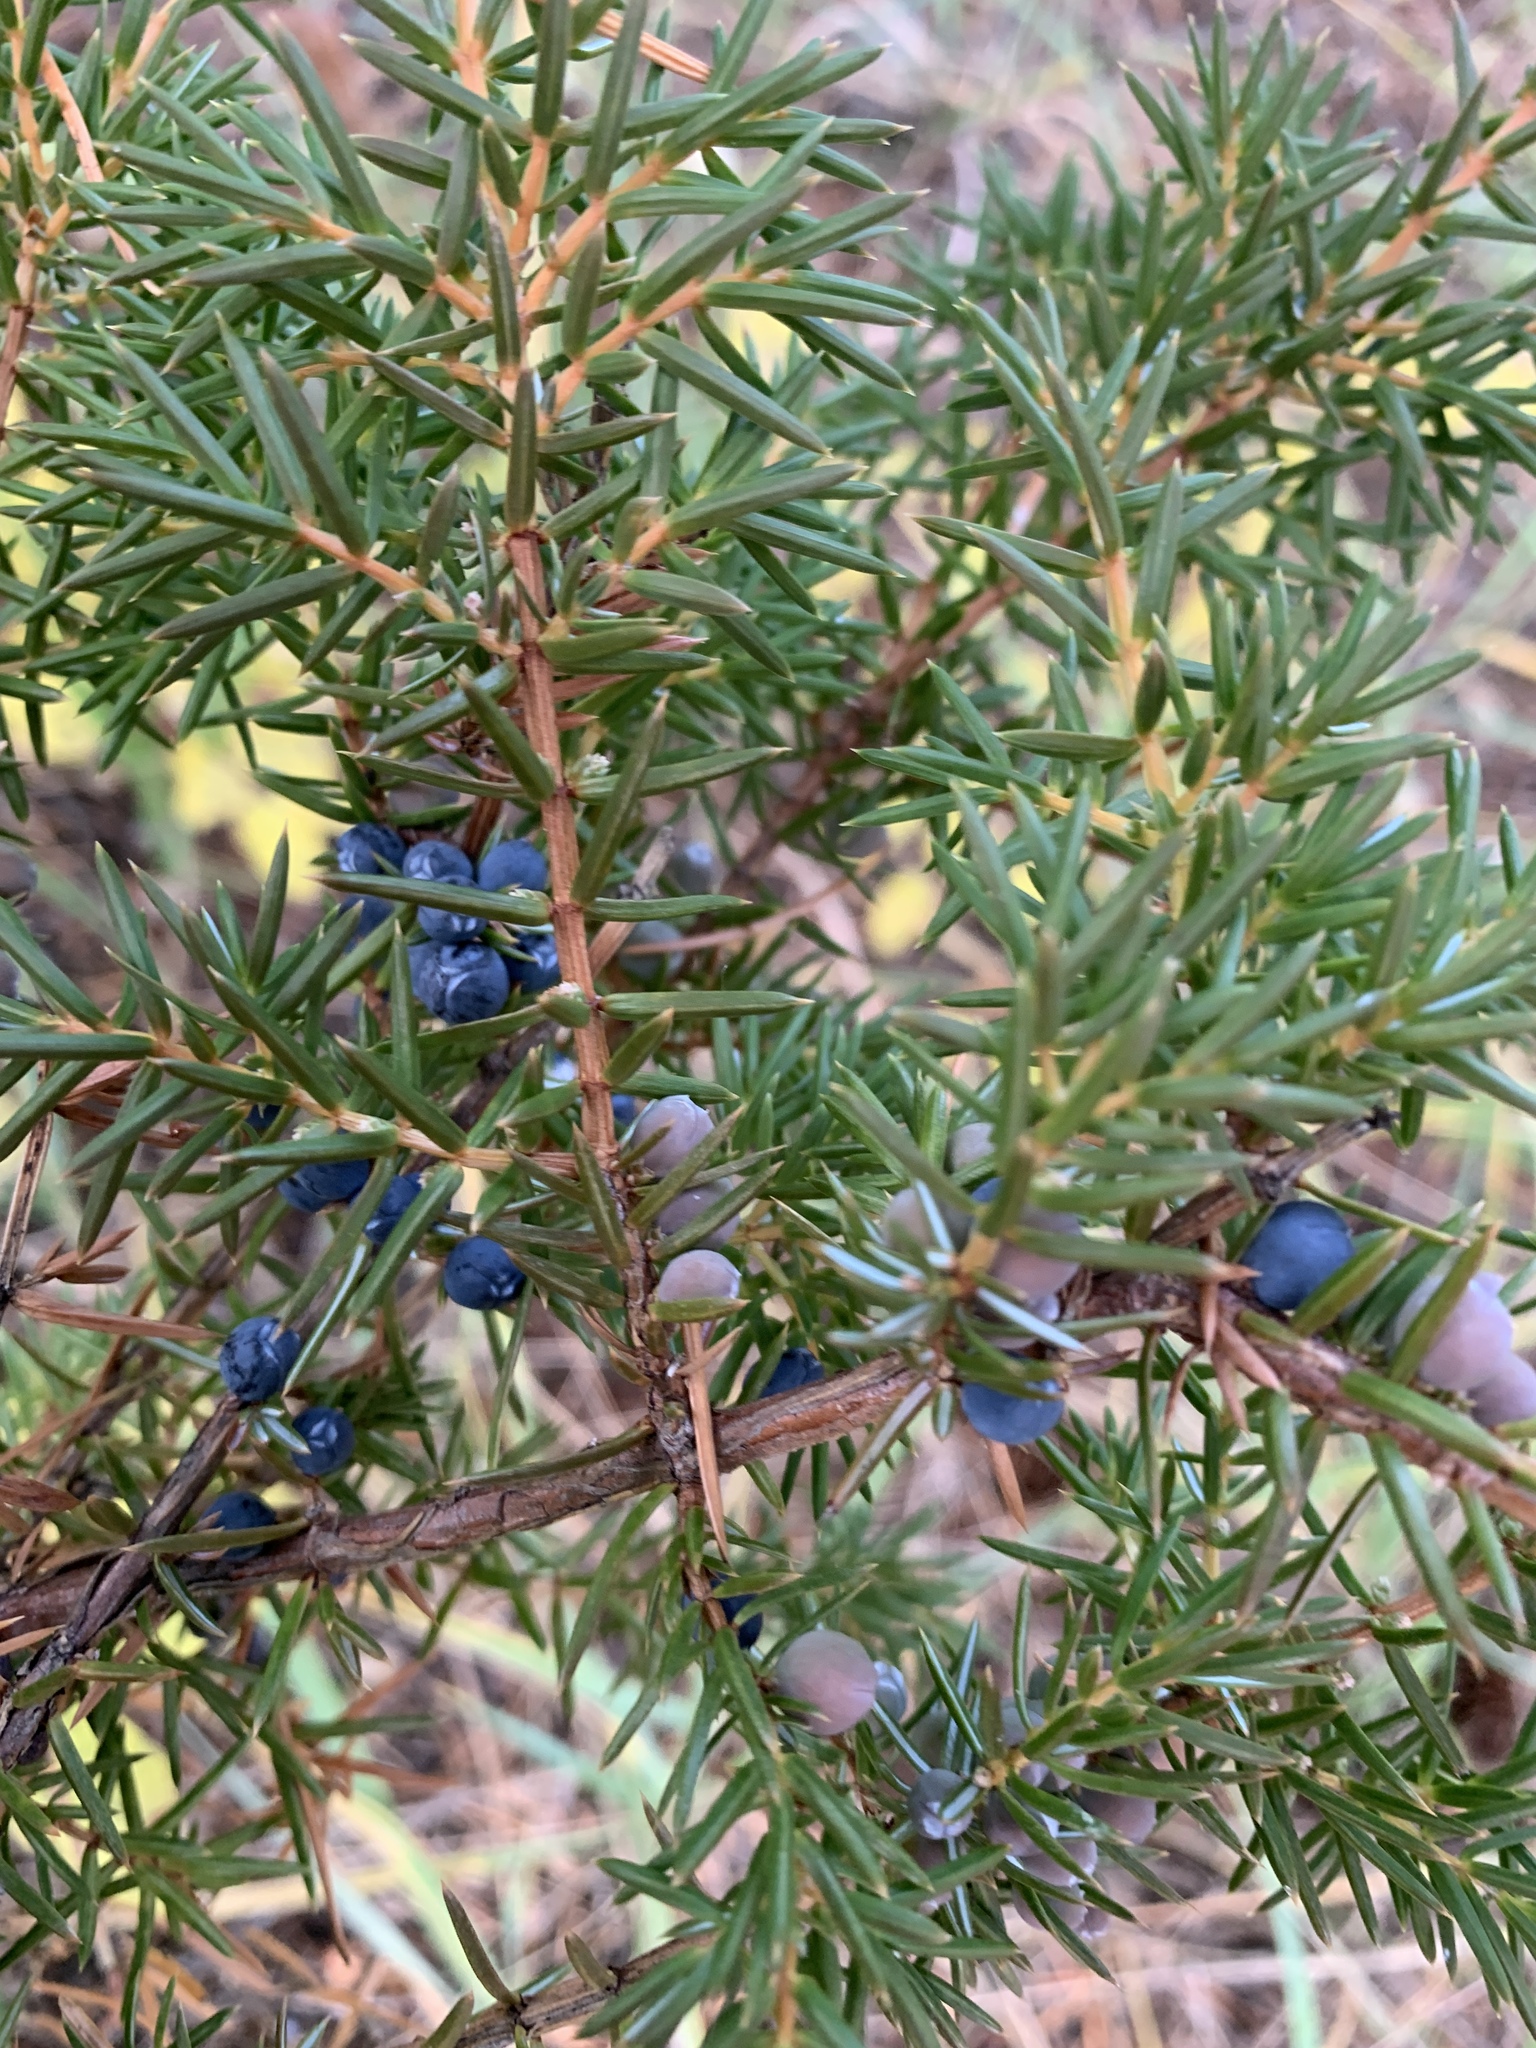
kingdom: Plantae
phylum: Tracheophyta
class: Pinopsida
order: Pinales
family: Cupressaceae
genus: Juniperus
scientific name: Juniperus communis
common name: Common juniper
